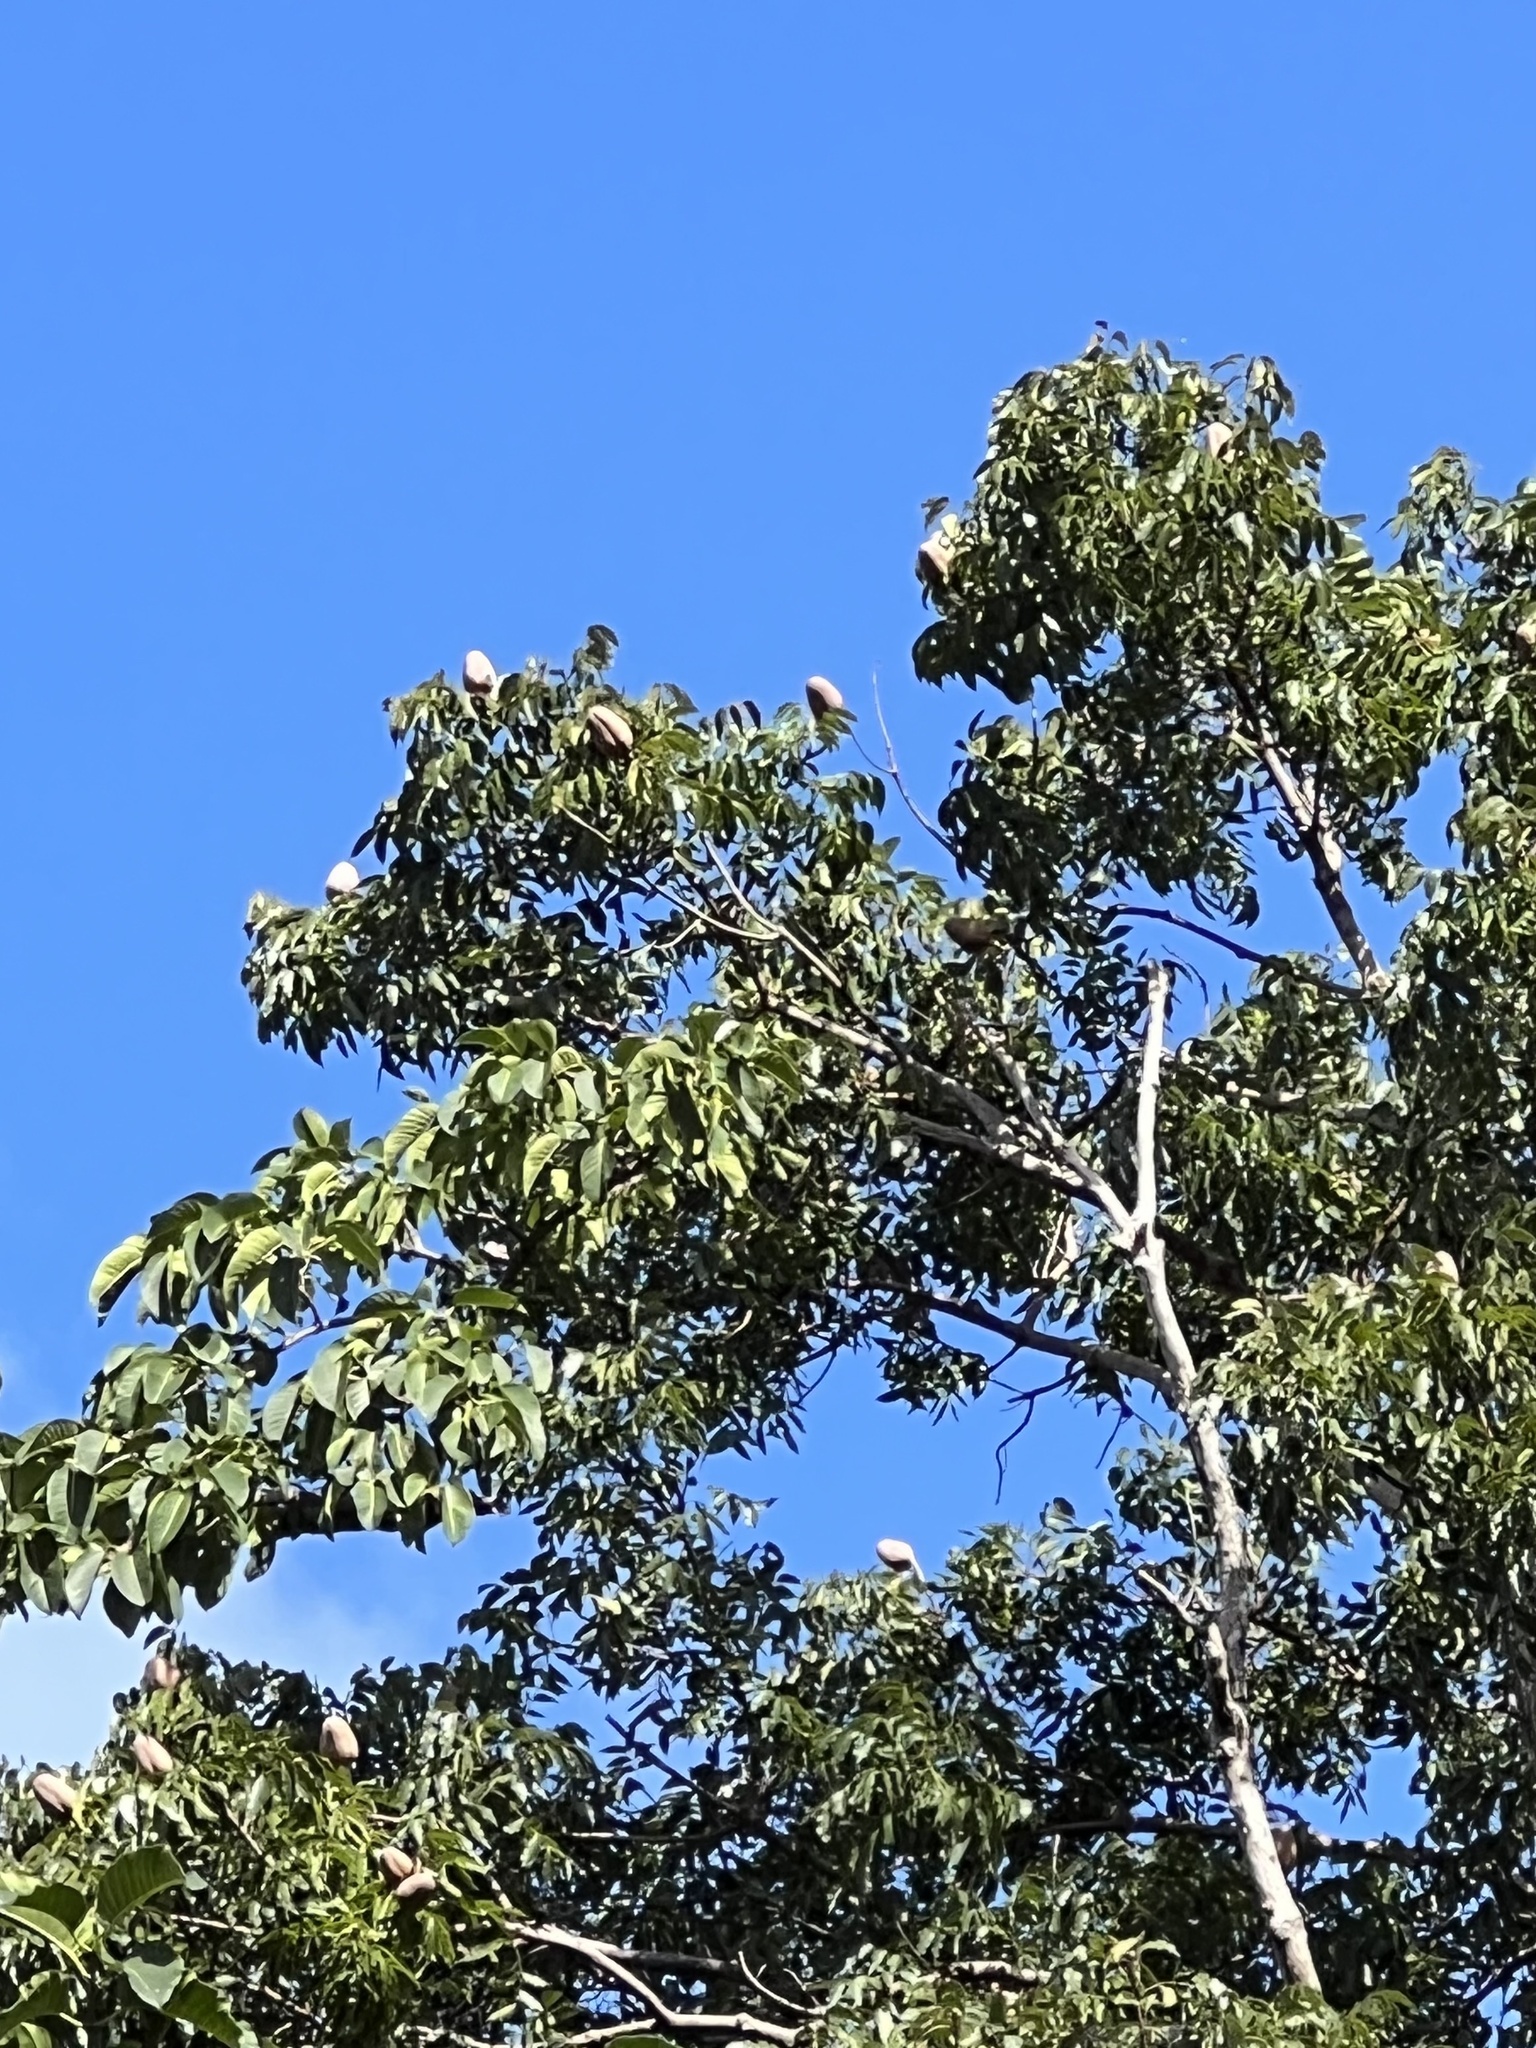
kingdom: Plantae
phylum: Tracheophyta
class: Magnoliopsida
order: Sapindales
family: Meliaceae
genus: Swietenia
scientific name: Swietenia aubrevilleana
